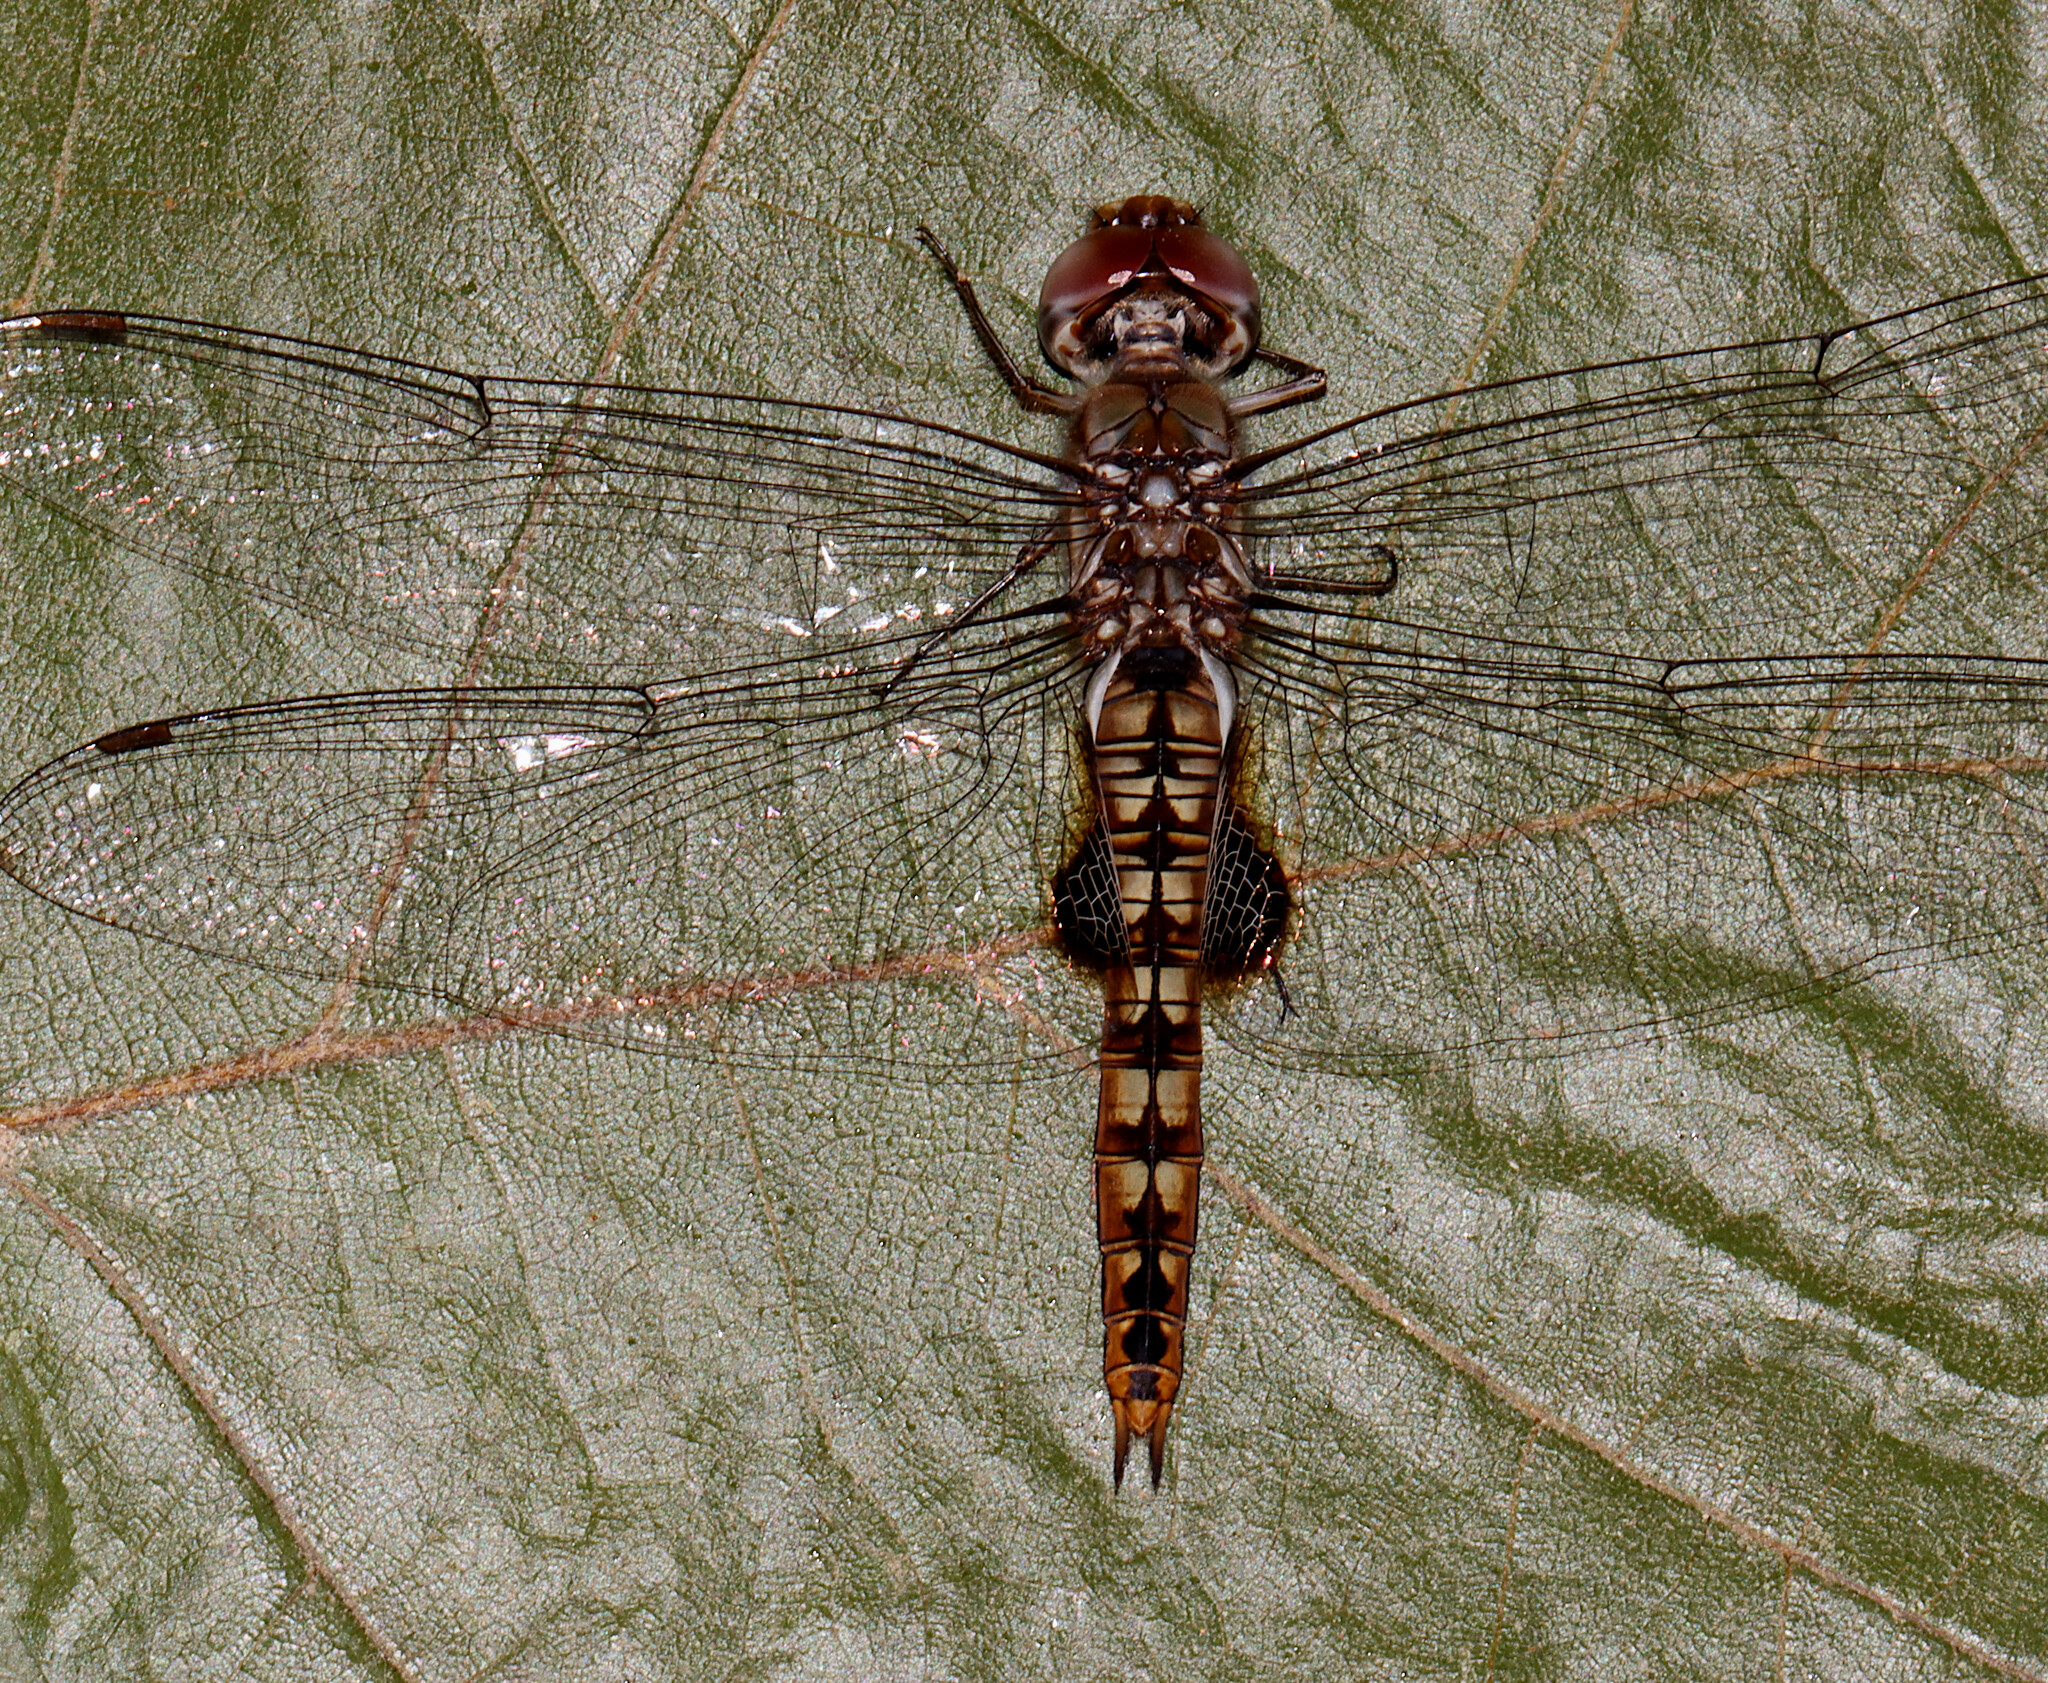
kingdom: Animalia
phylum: Arthropoda
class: Insecta
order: Odonata
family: Libellulidae
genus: Pantala
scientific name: Pantala hymenaea
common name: Spot-winged glider
